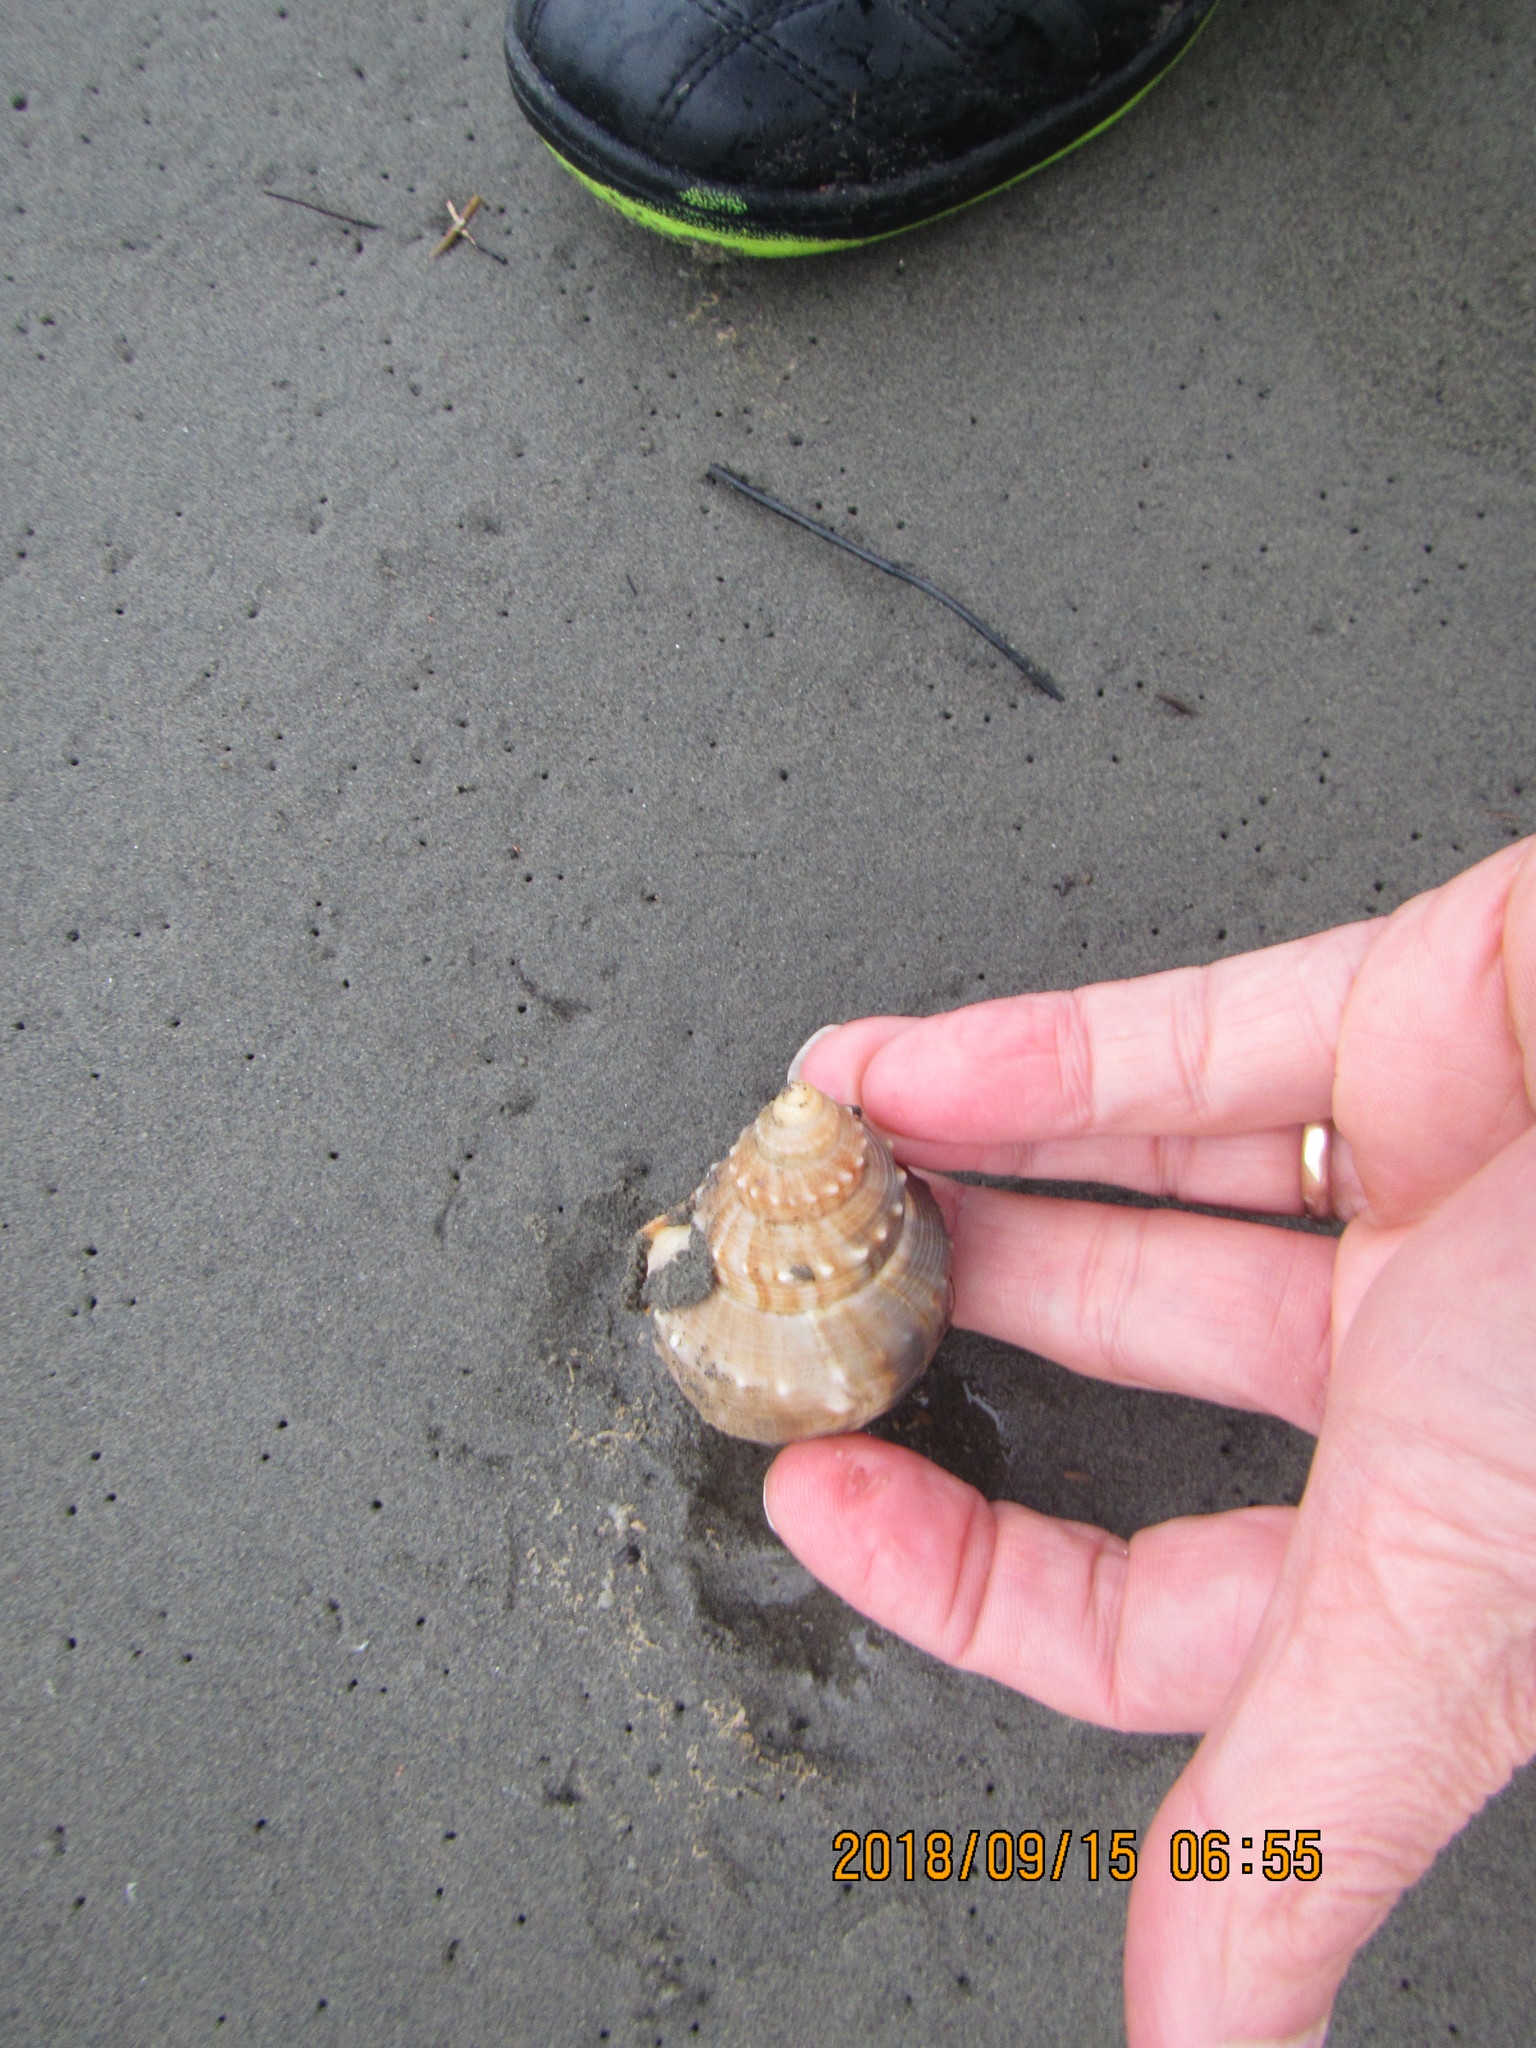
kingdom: Animalia
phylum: Mollusca
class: Gastropoda
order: Littorinimorpha
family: Struthiolariidae
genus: Struthiolaria
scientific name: Struthiolaria papulosa
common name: Large ostrich foot
